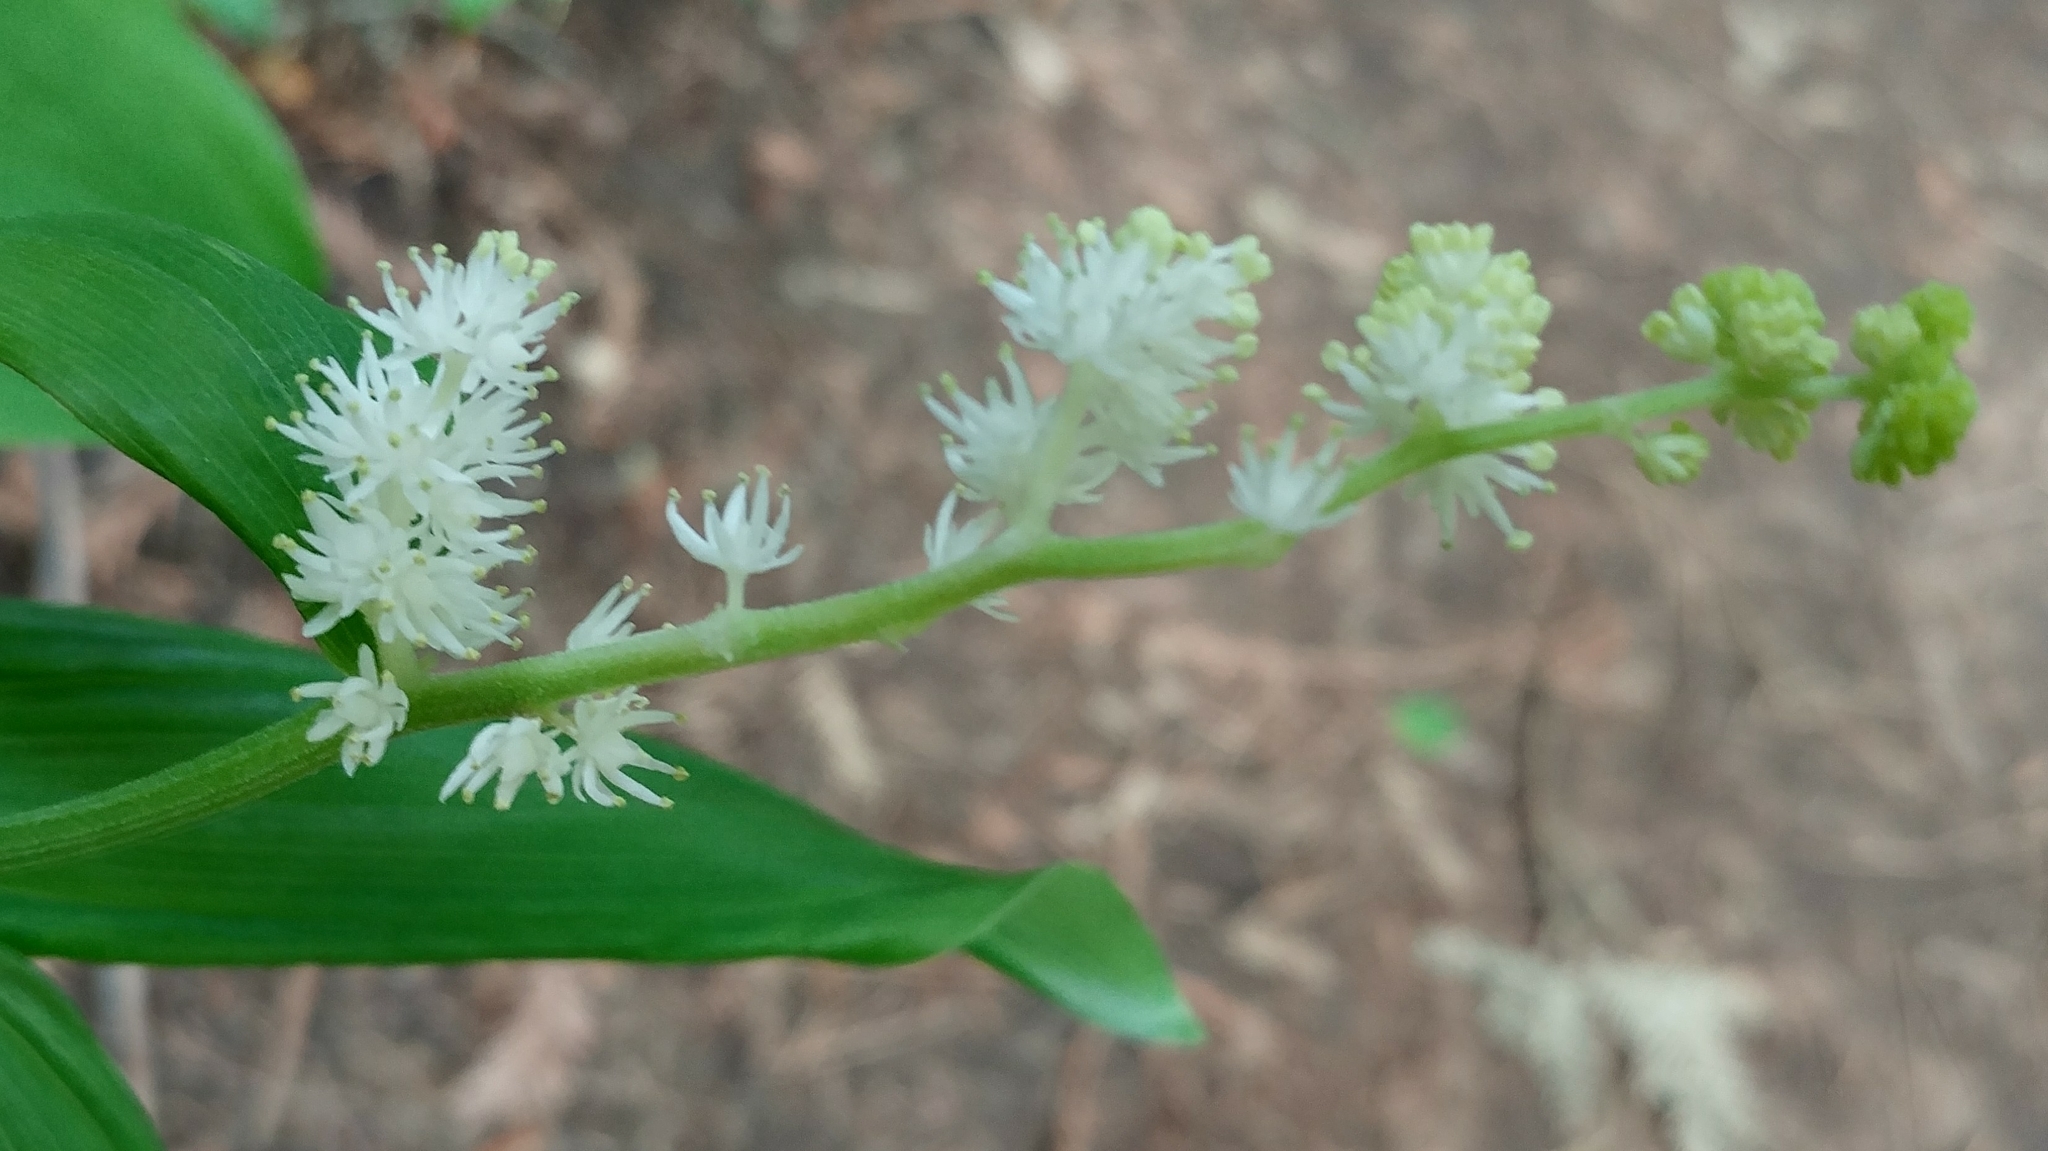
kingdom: Plantae
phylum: Tracheophyta
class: Liliopsida
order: Asparagales
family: Asparagaceae
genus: Maianthemum
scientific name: Maianthemum racemosum
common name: False spikenard
